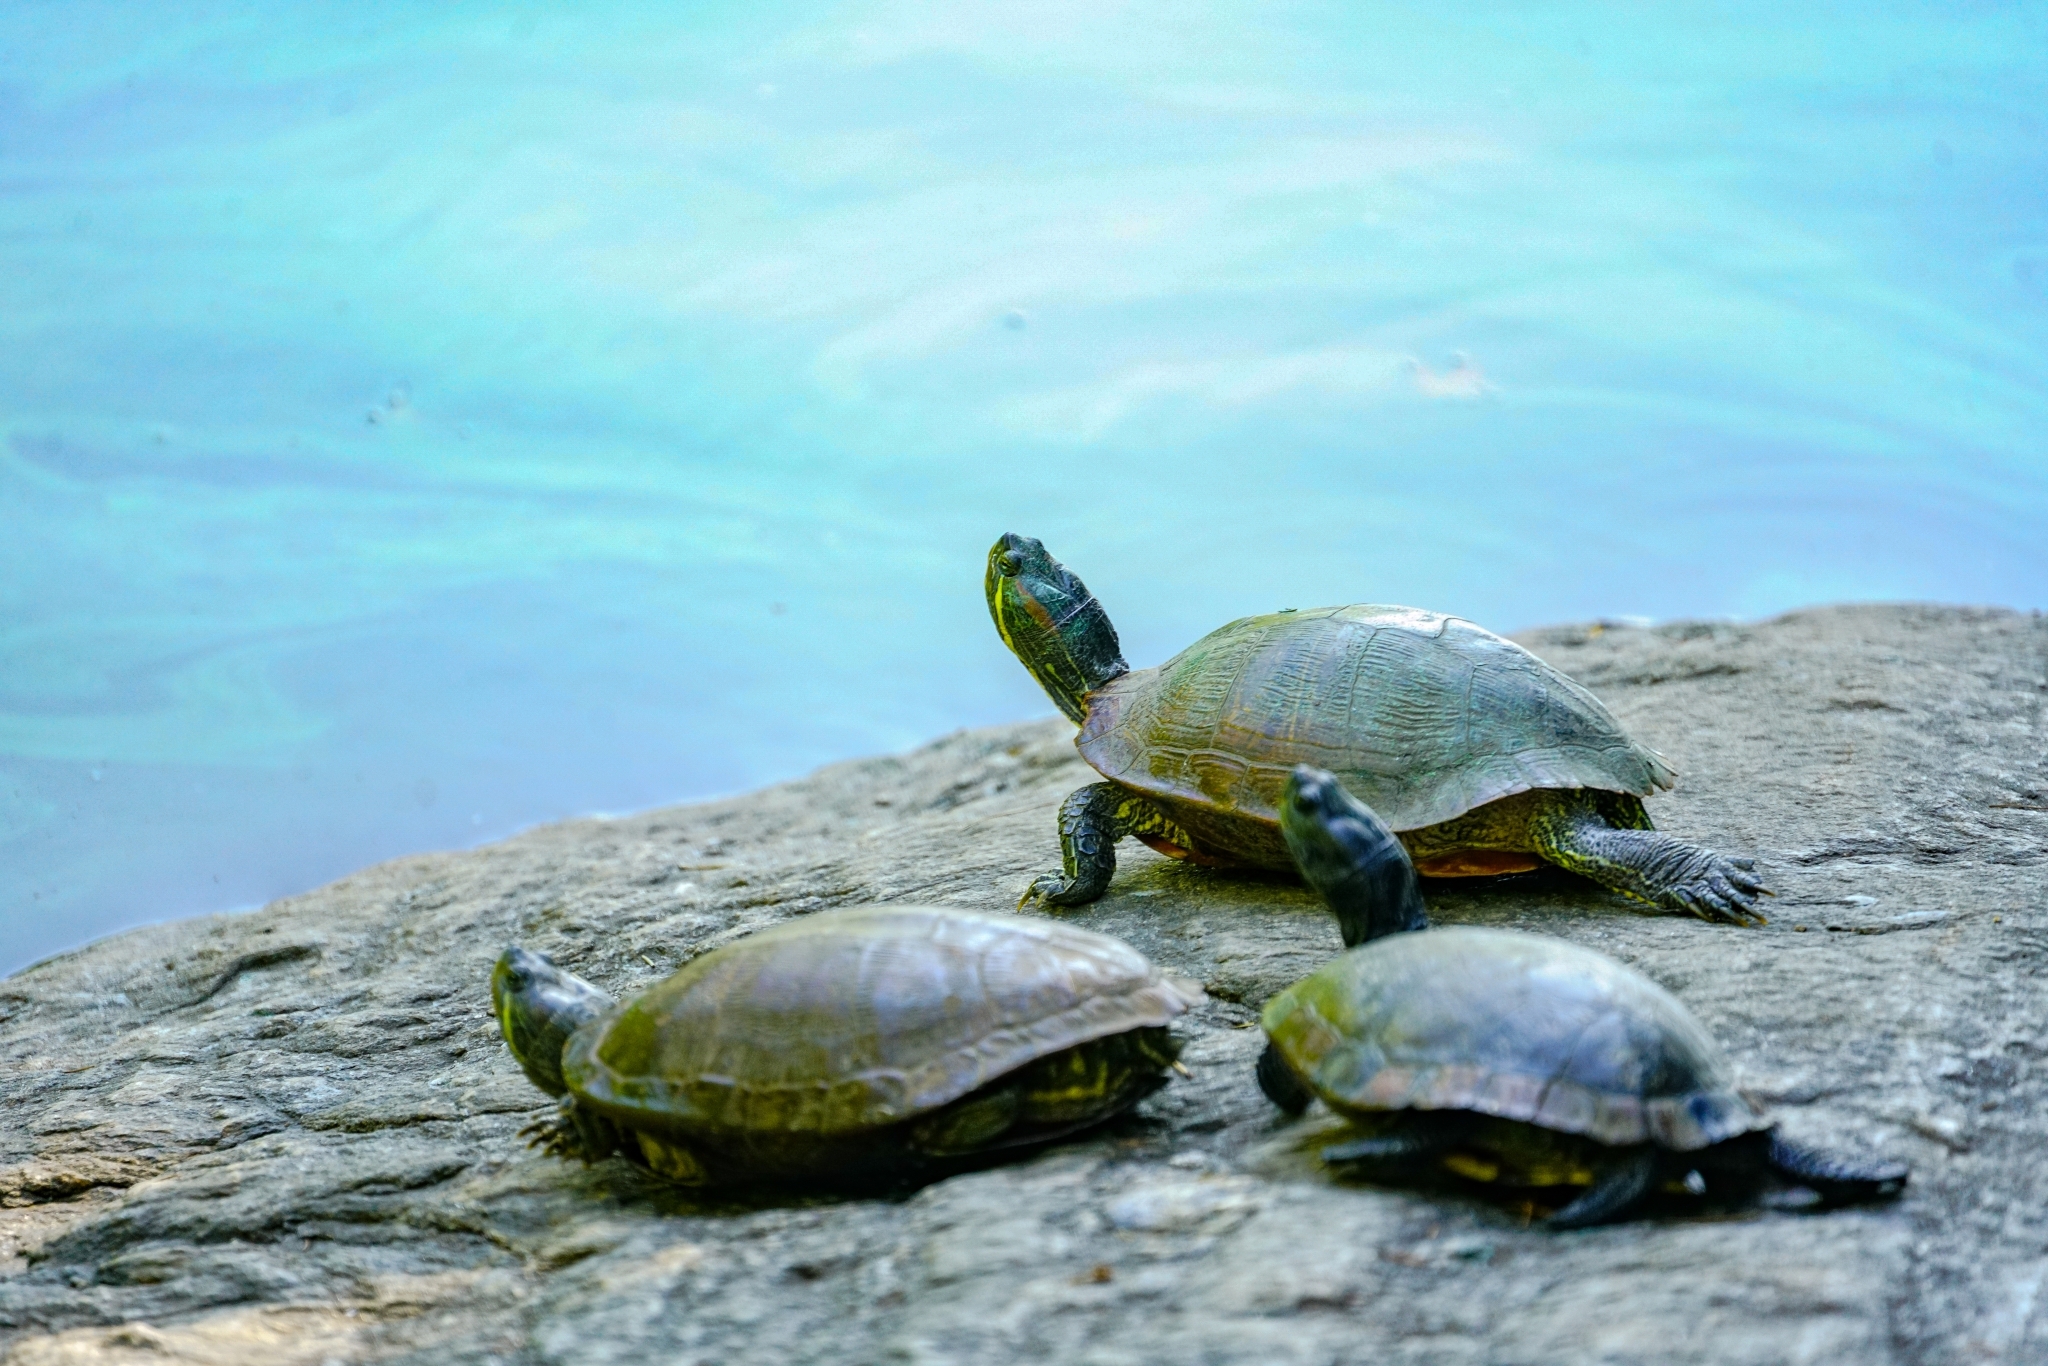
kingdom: Animalia
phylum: Chordata
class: Testudines
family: Emydidae
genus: Trachemys
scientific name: Trachemys scripta
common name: Slider
